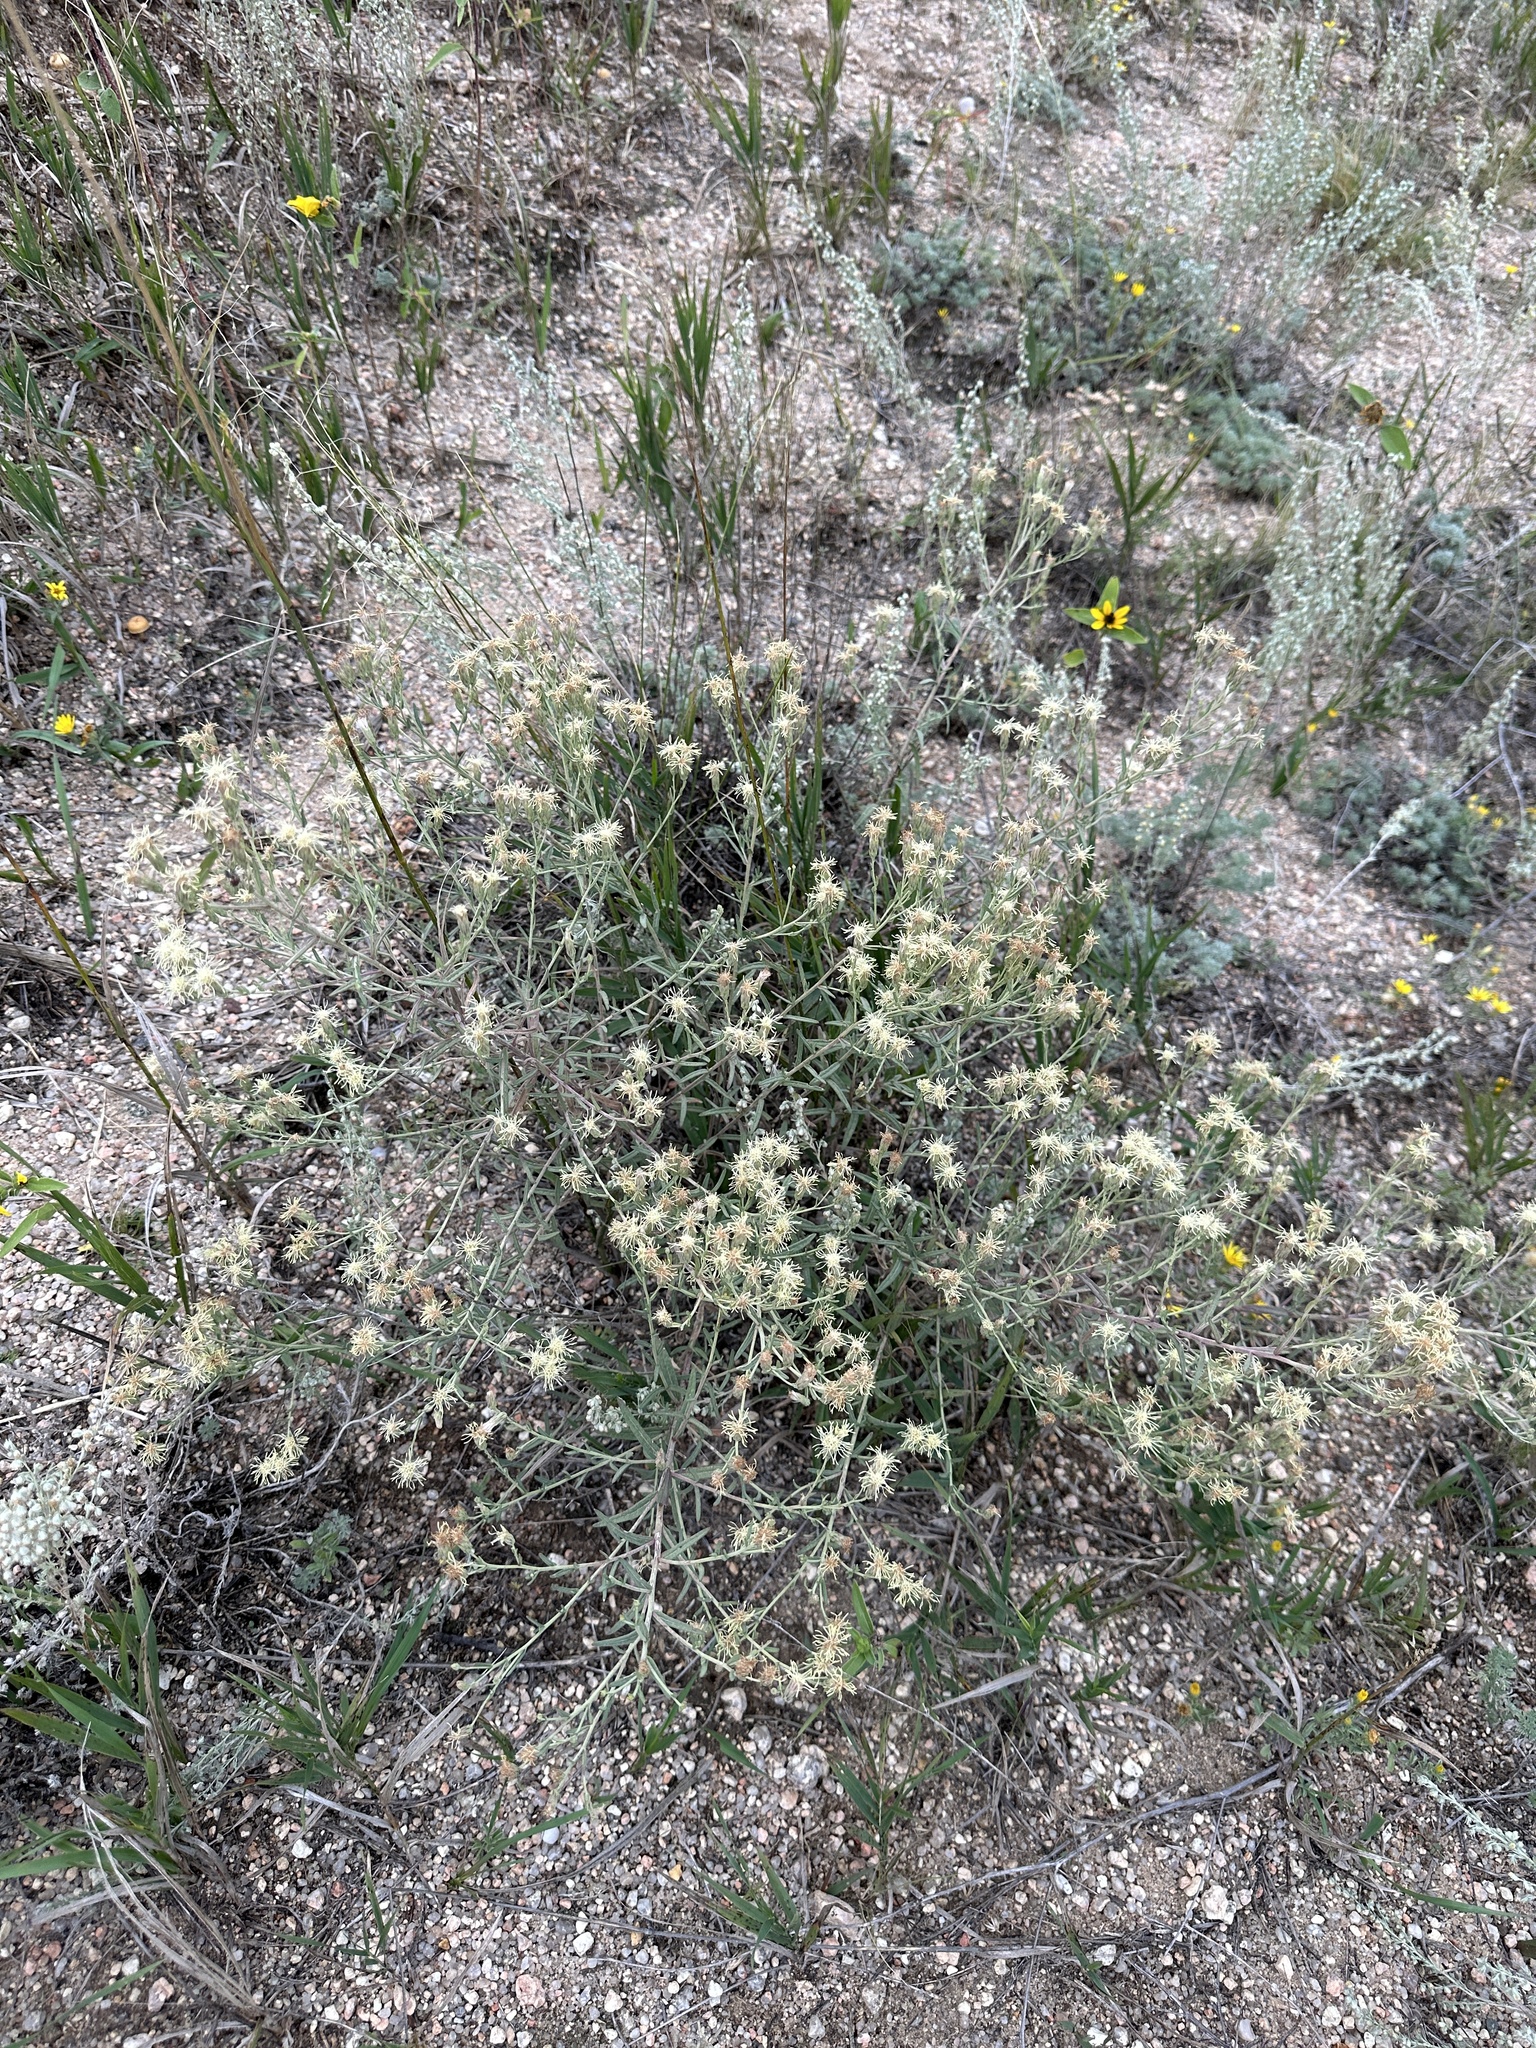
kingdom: Plantae
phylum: Tracheophyta
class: Magnoliopsida
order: Asterales
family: Asteraceae
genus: Brickellia
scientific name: Brickellia eupatorioides
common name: False boneset
